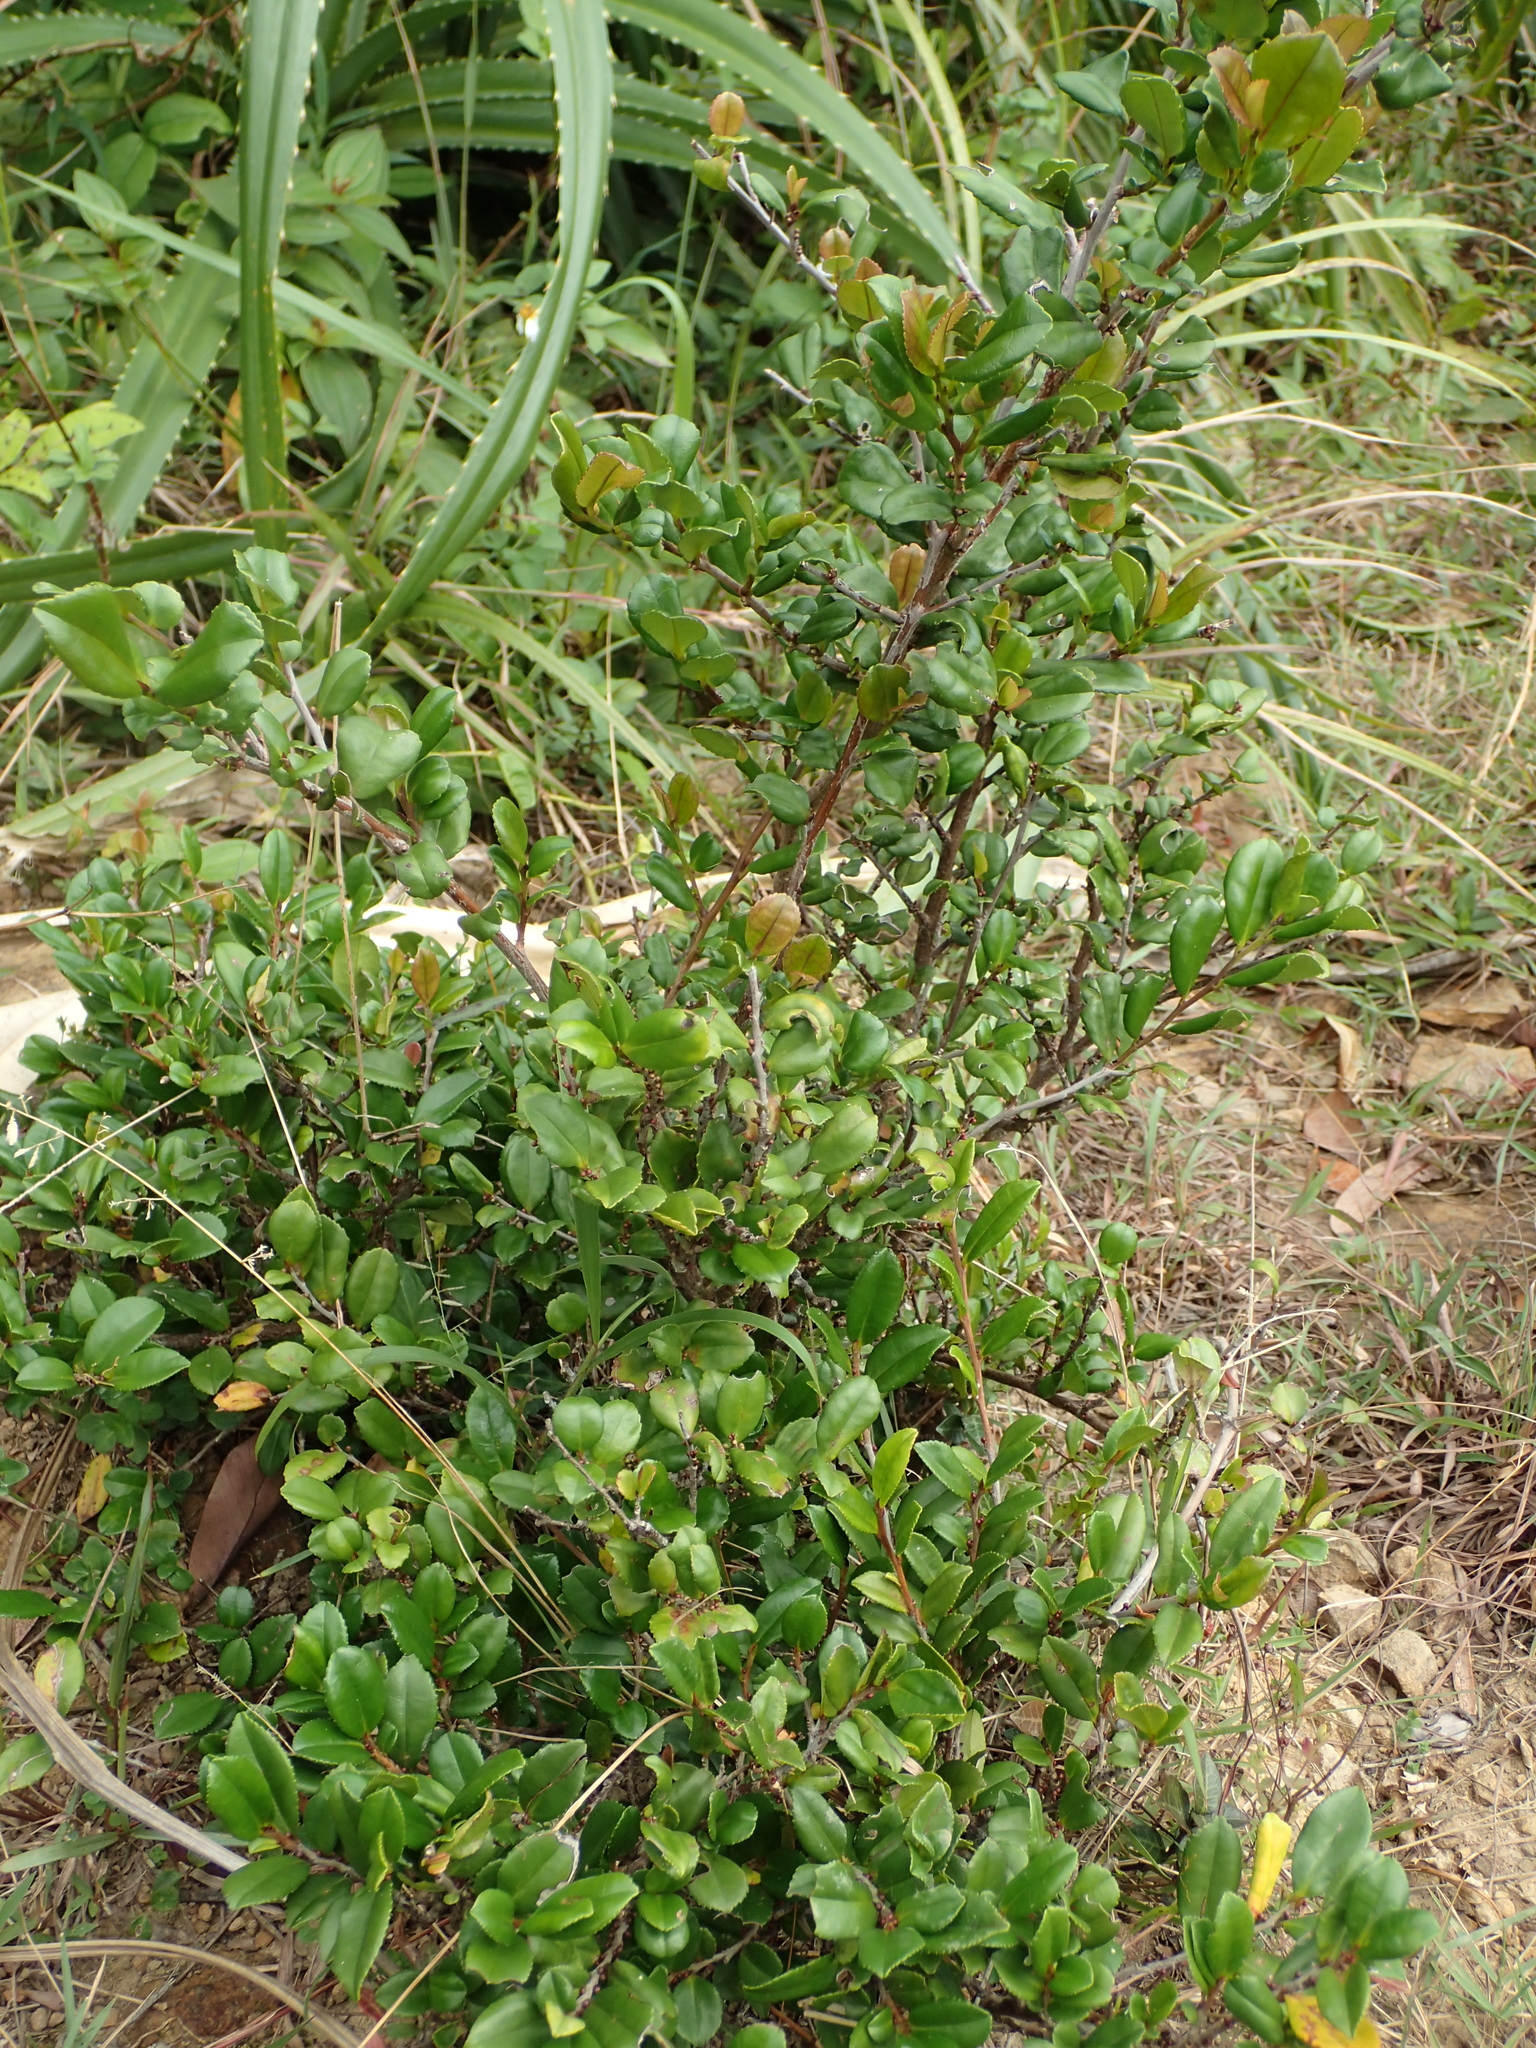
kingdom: Plantae
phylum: Tracheophyta
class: Magnoliopsida
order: Ericales
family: Pentaphylacaceae
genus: Eurya
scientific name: Eurya emarginata
